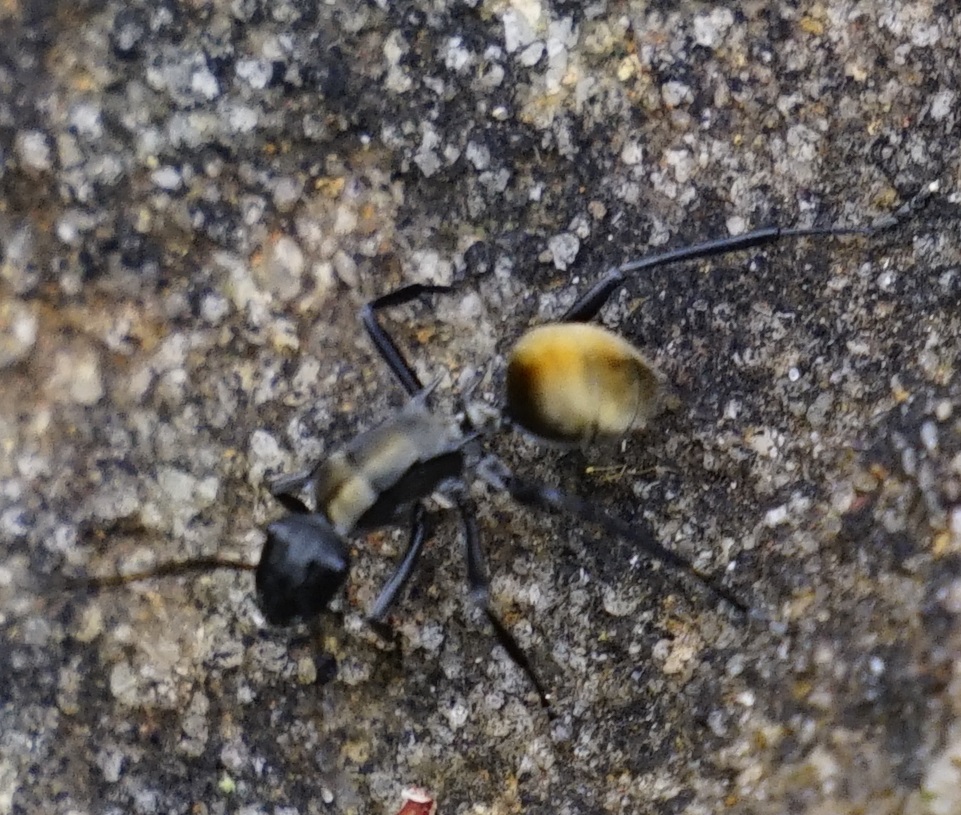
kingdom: Animalia
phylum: Arthropoda
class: Insecta
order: Hymenoptera
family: Formicidae
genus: Polyrhachis
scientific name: Polyrhachis ammon
